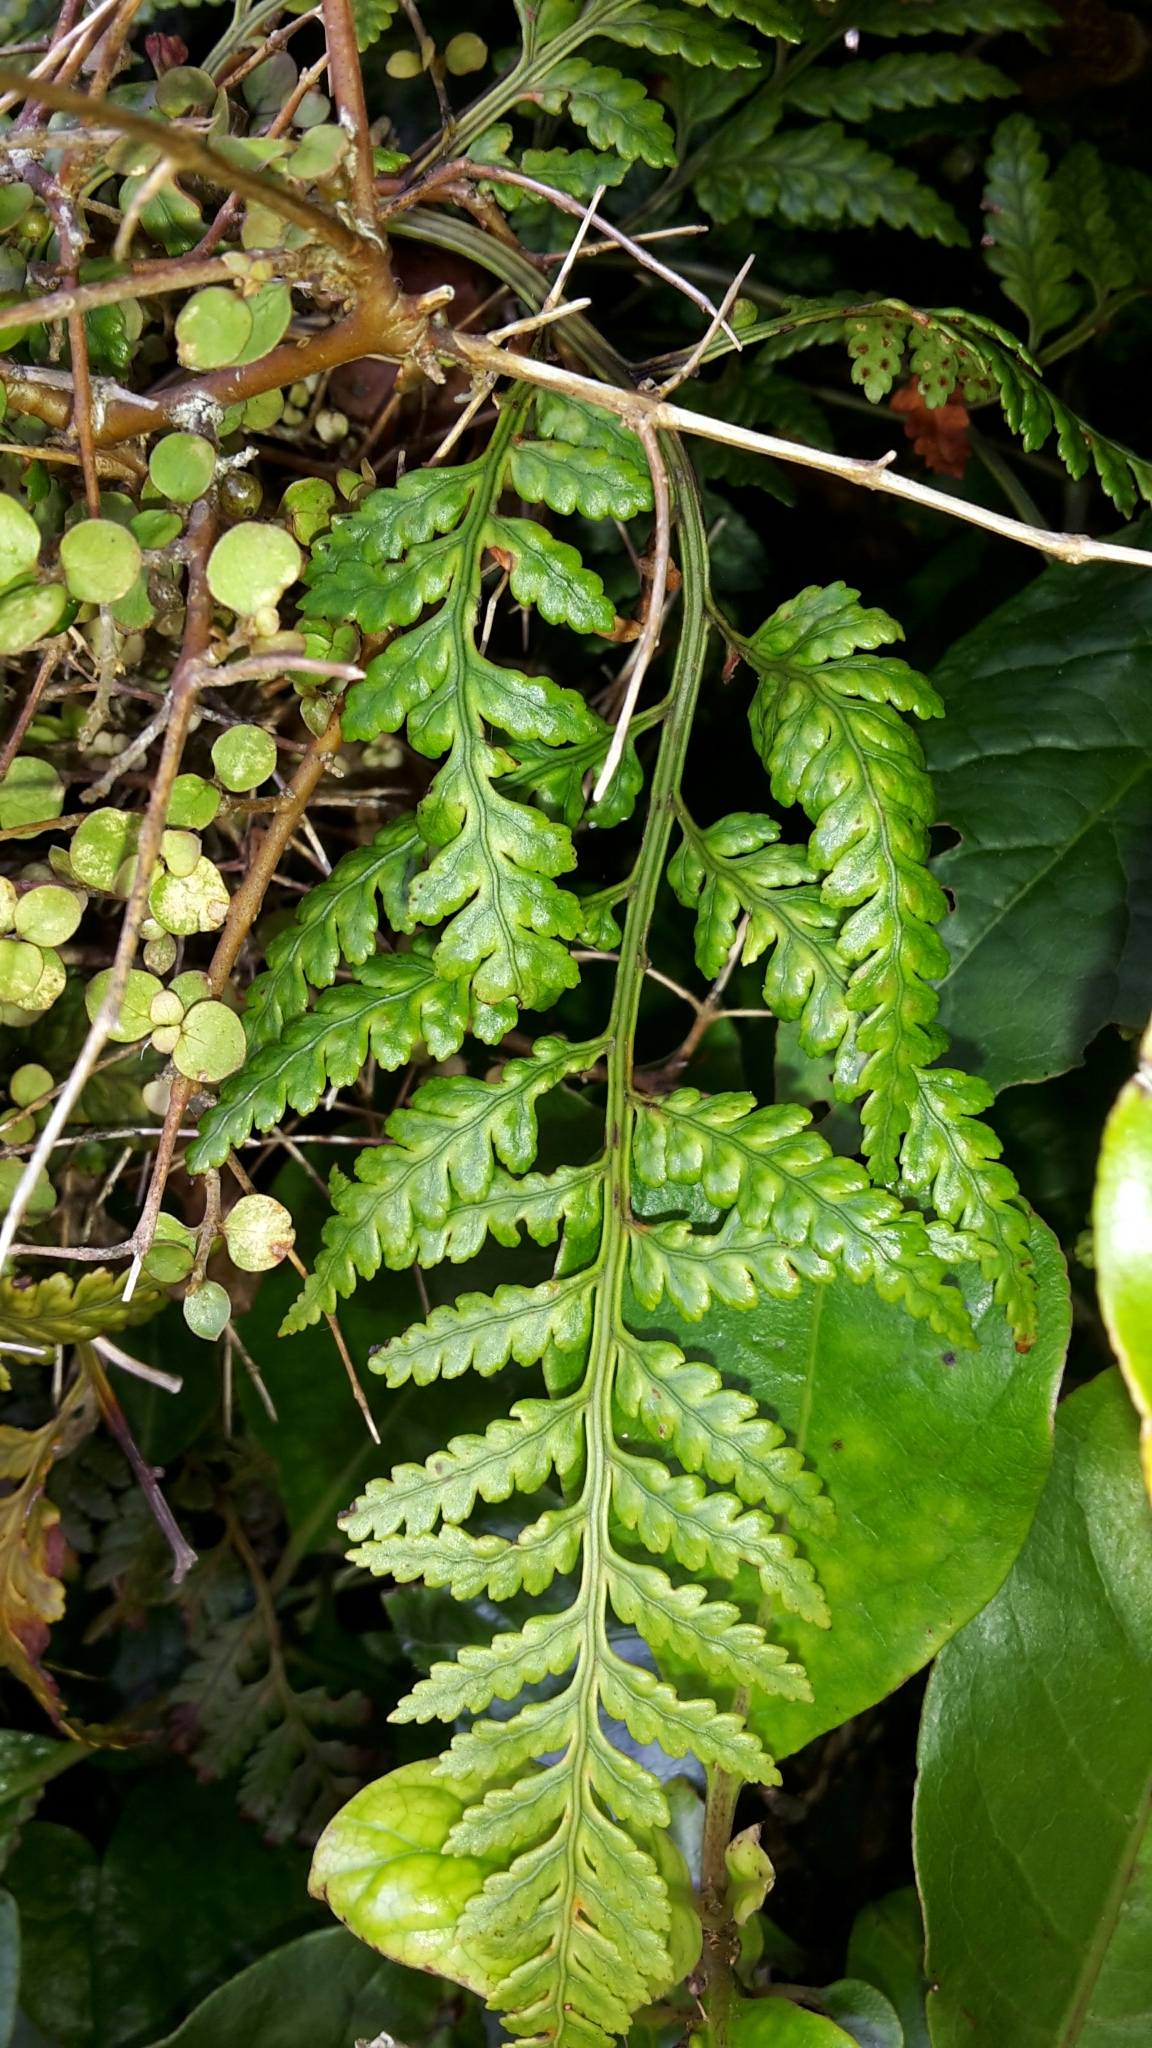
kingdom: Plantae
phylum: Tracheophyta
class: Polypodiopsida
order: Polypodiales
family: Dryopteridaceae
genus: Rumohra
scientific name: Rumohra adiantiformis
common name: Leather fern
